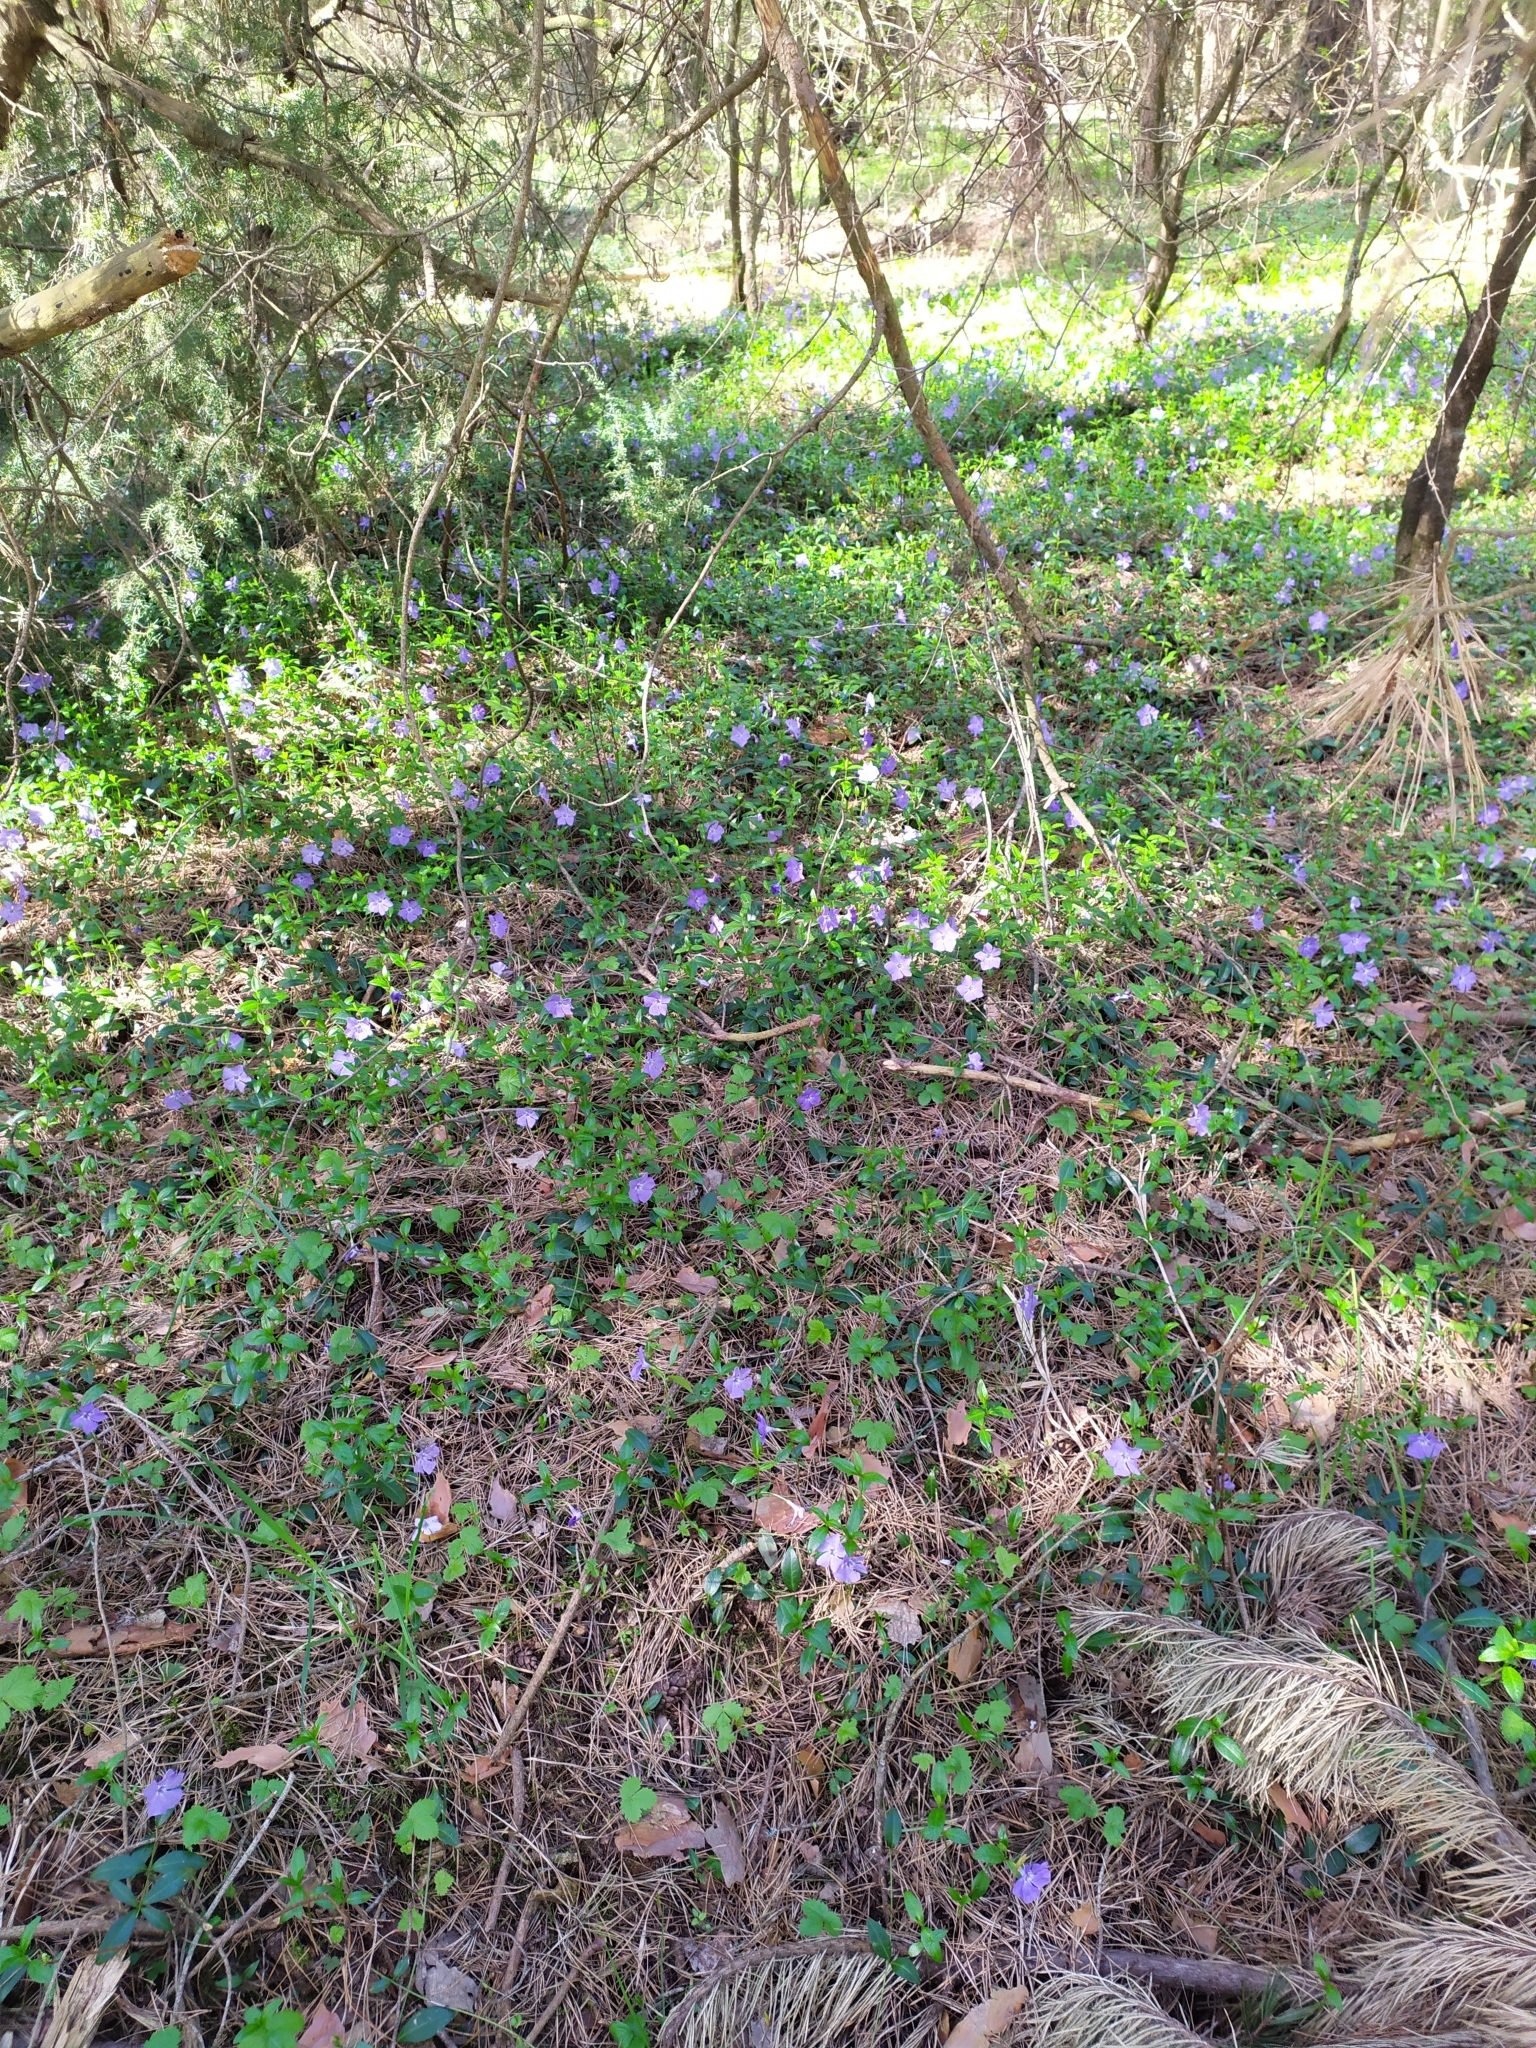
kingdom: Plantae
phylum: Tracheophyta
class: Magnoliopsida
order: Gentianales
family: Apocynaceae
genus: Vinca
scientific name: Vinca minor
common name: Lesser periwinkle
